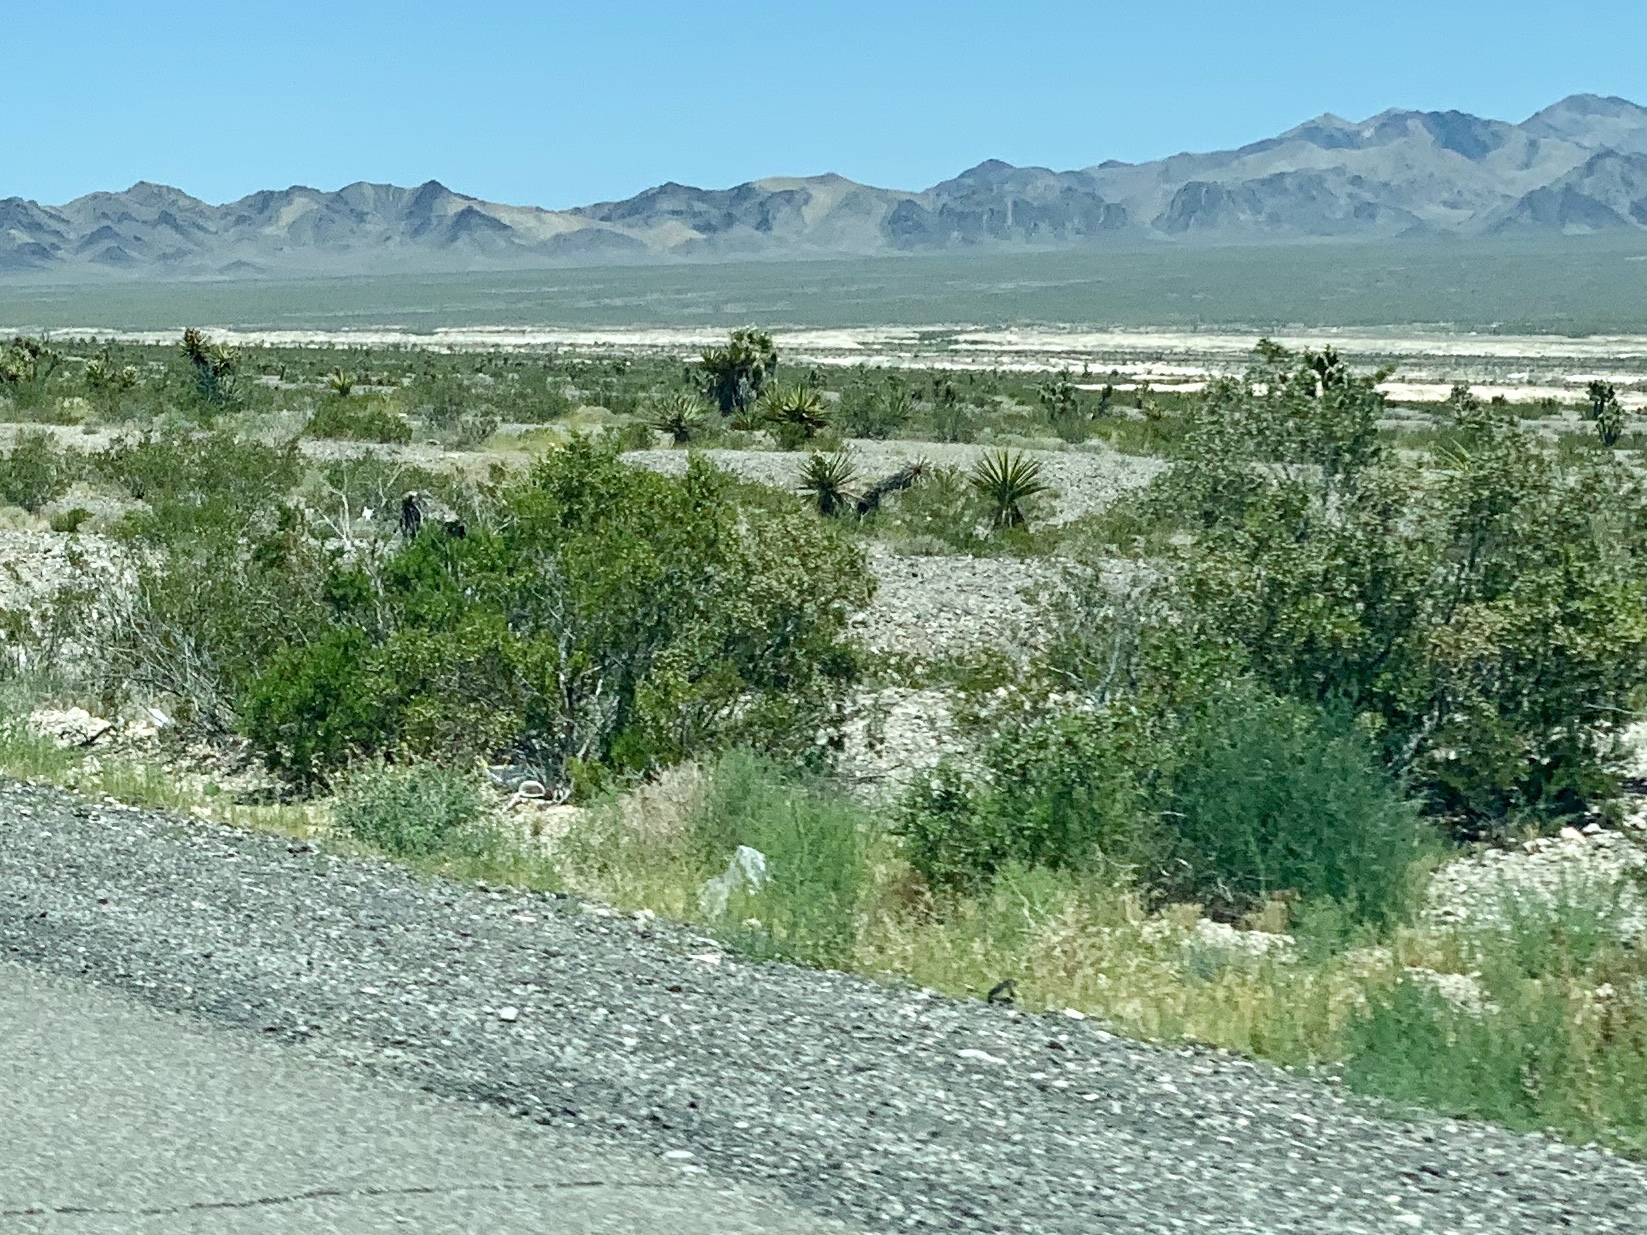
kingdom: Plantae
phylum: Tracheophyta
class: Magnoliopsida
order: Zygophyllales
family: Zygophyllaceae
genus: Larrea
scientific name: Larrea tridentata
